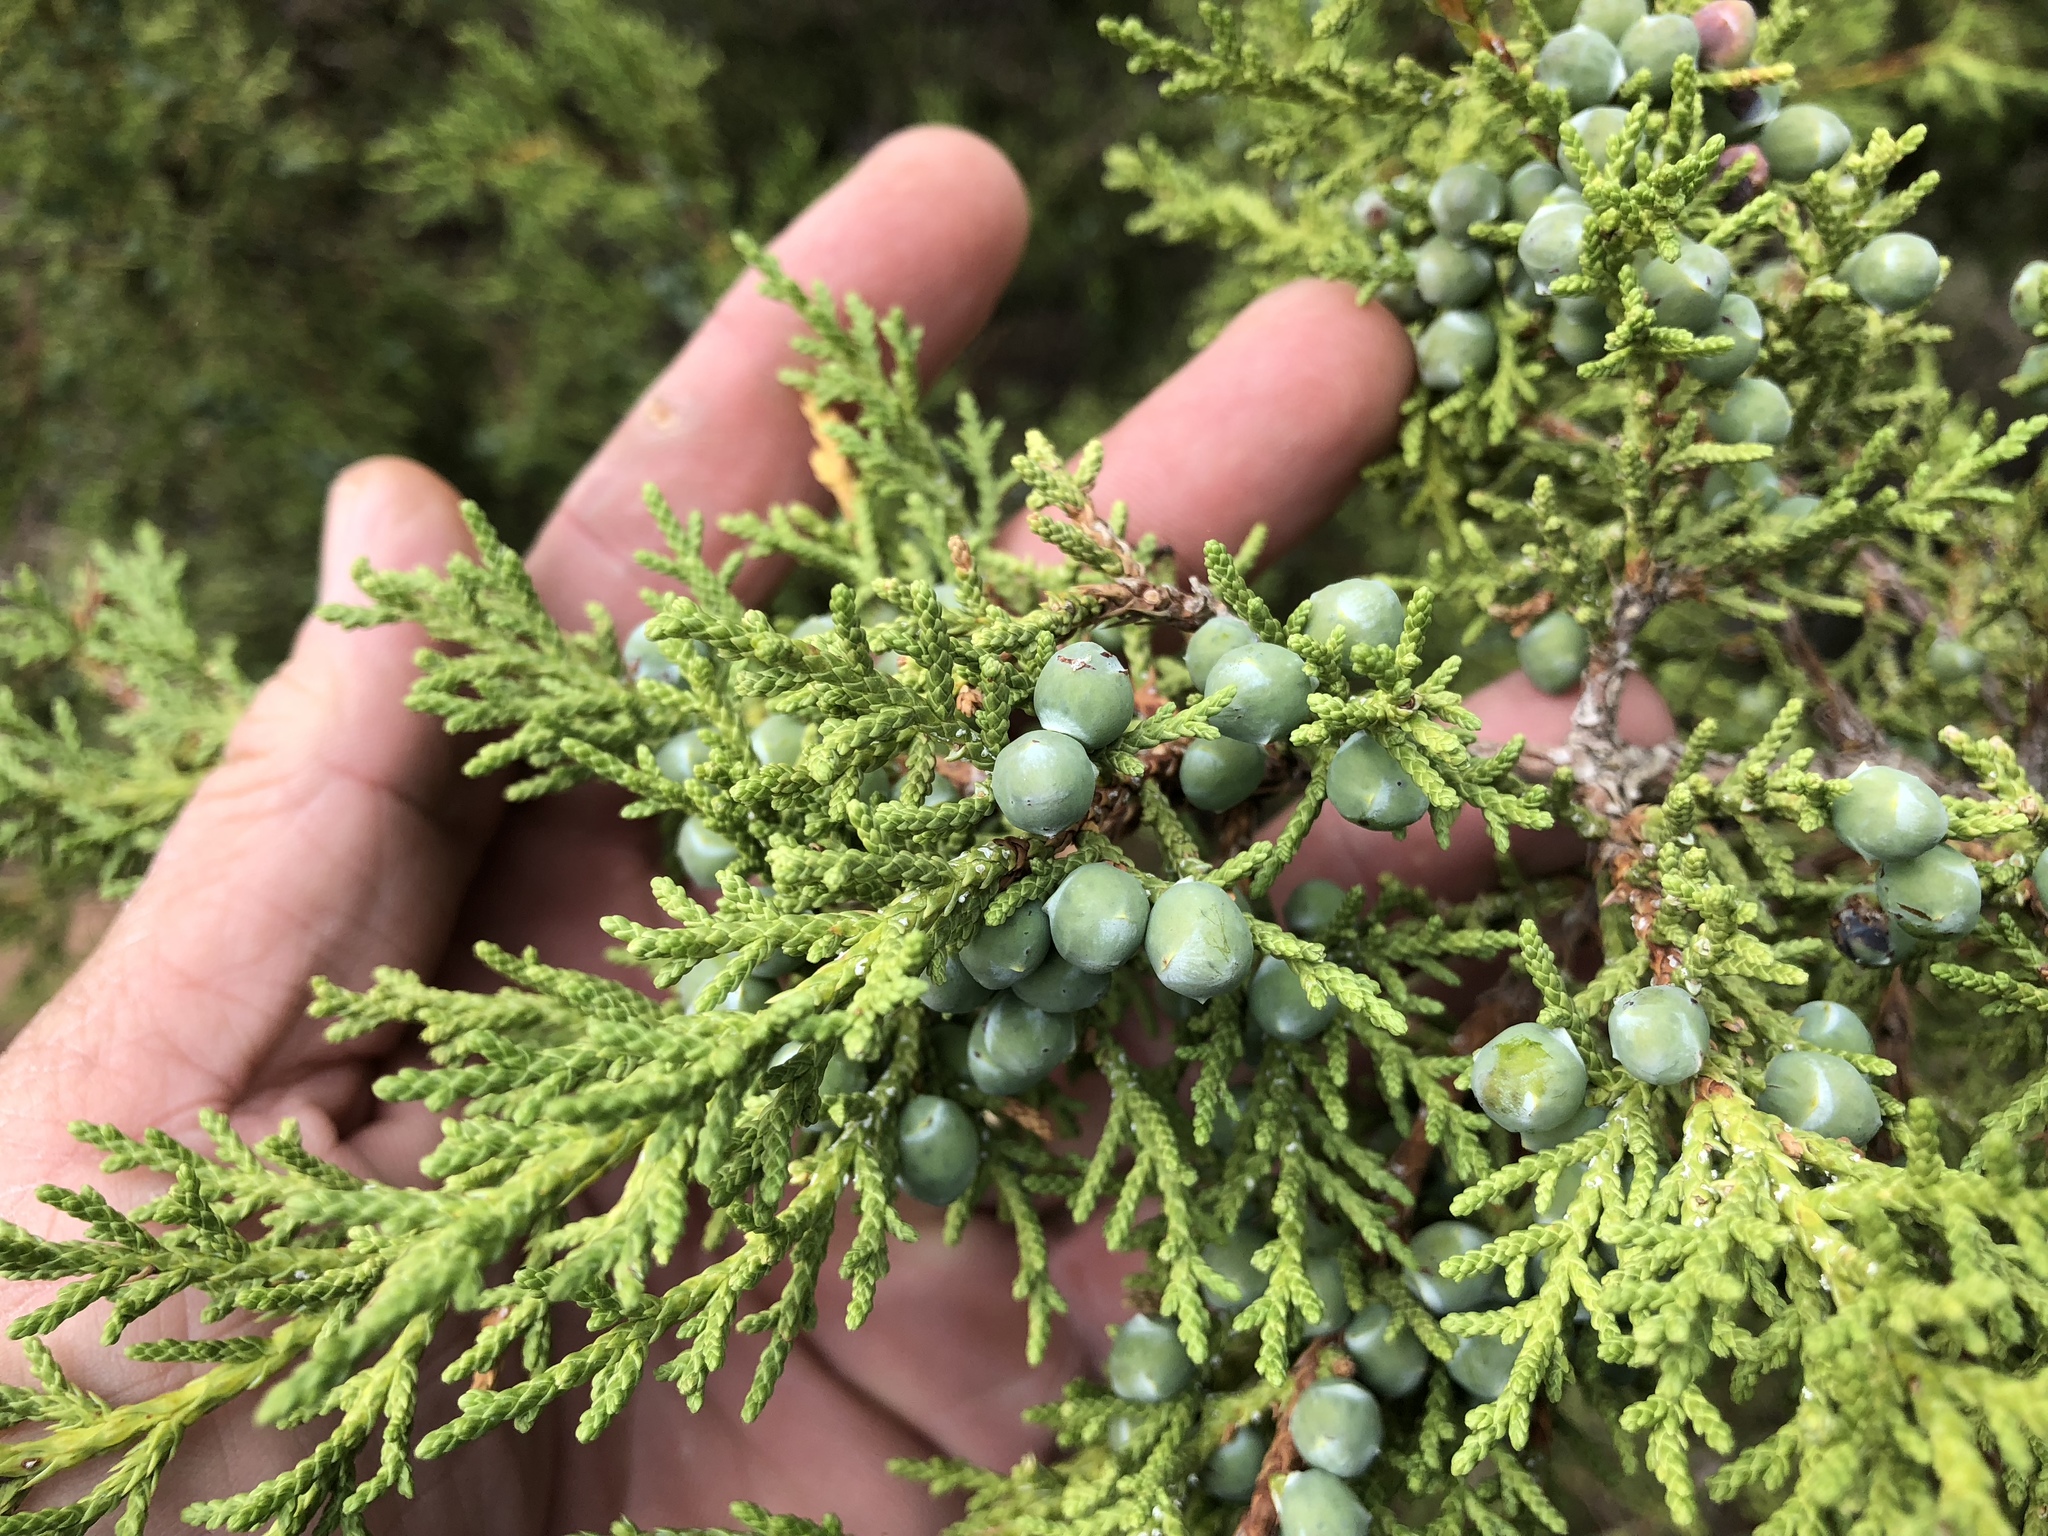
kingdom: Plantae
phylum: Tracheophyta
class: Pinopsida
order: Pinales
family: Cupressaceae
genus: Juniperus
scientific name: Juniperus monosperma
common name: One-seed juniper
